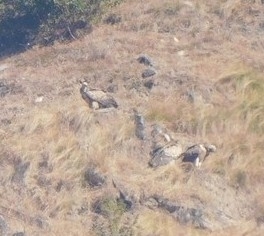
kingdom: Animalia
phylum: Chordata
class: Aves
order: Accipitriformes
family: Accipitridae
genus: Gyps
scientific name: Gyps himalayensis
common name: Himalayan griffon
